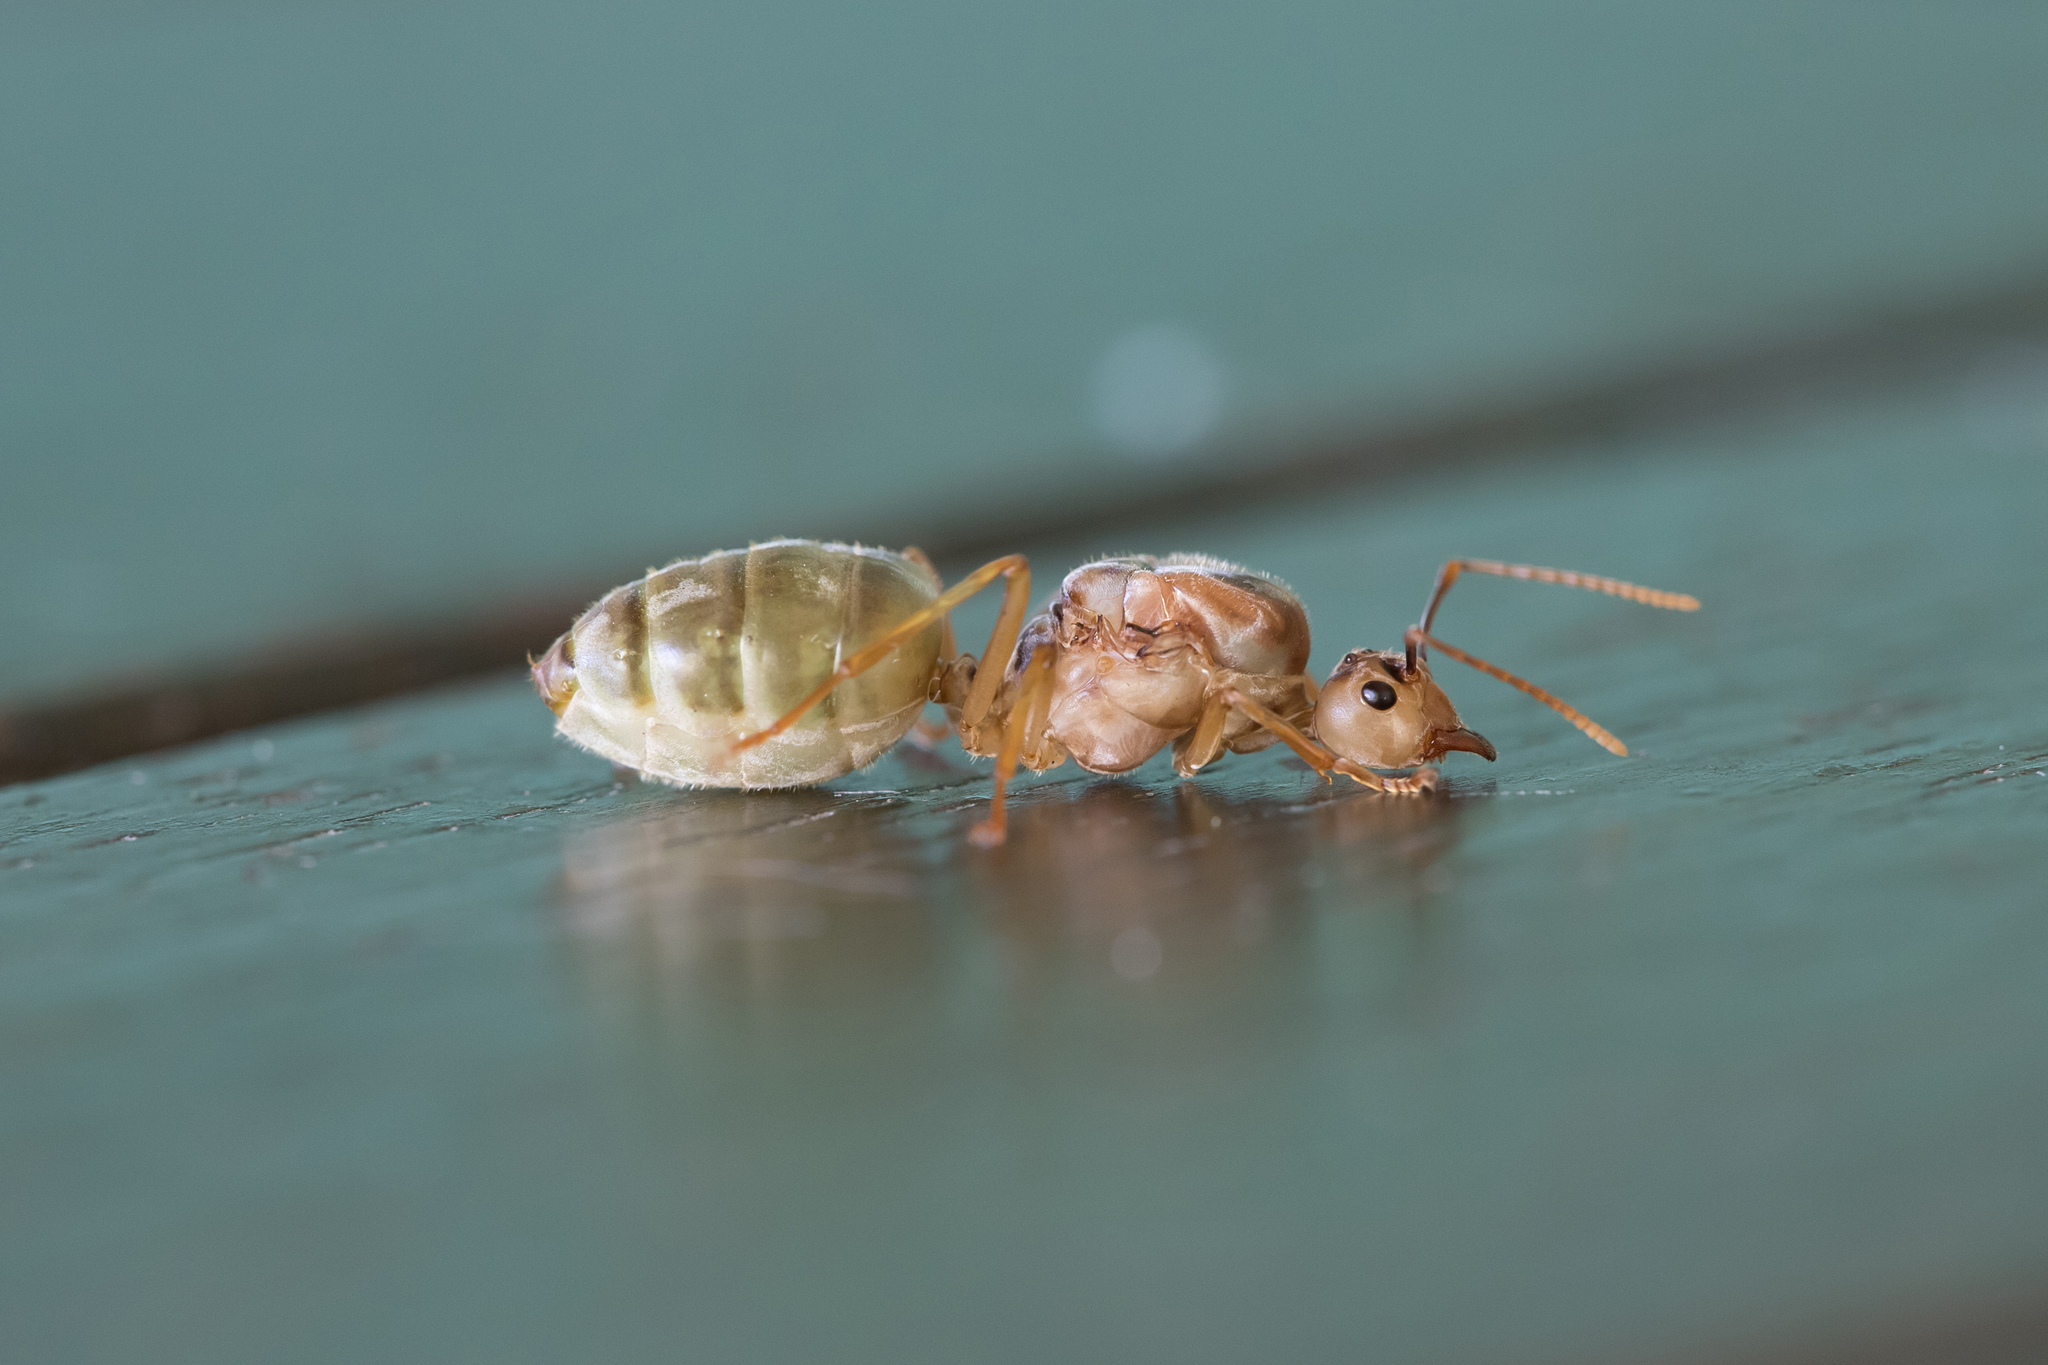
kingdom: Animalia
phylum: Arthropoda
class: Insecta
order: Hymenoptera
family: Formicidae
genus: Oecophylla
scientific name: Oecophylla smaragdina
